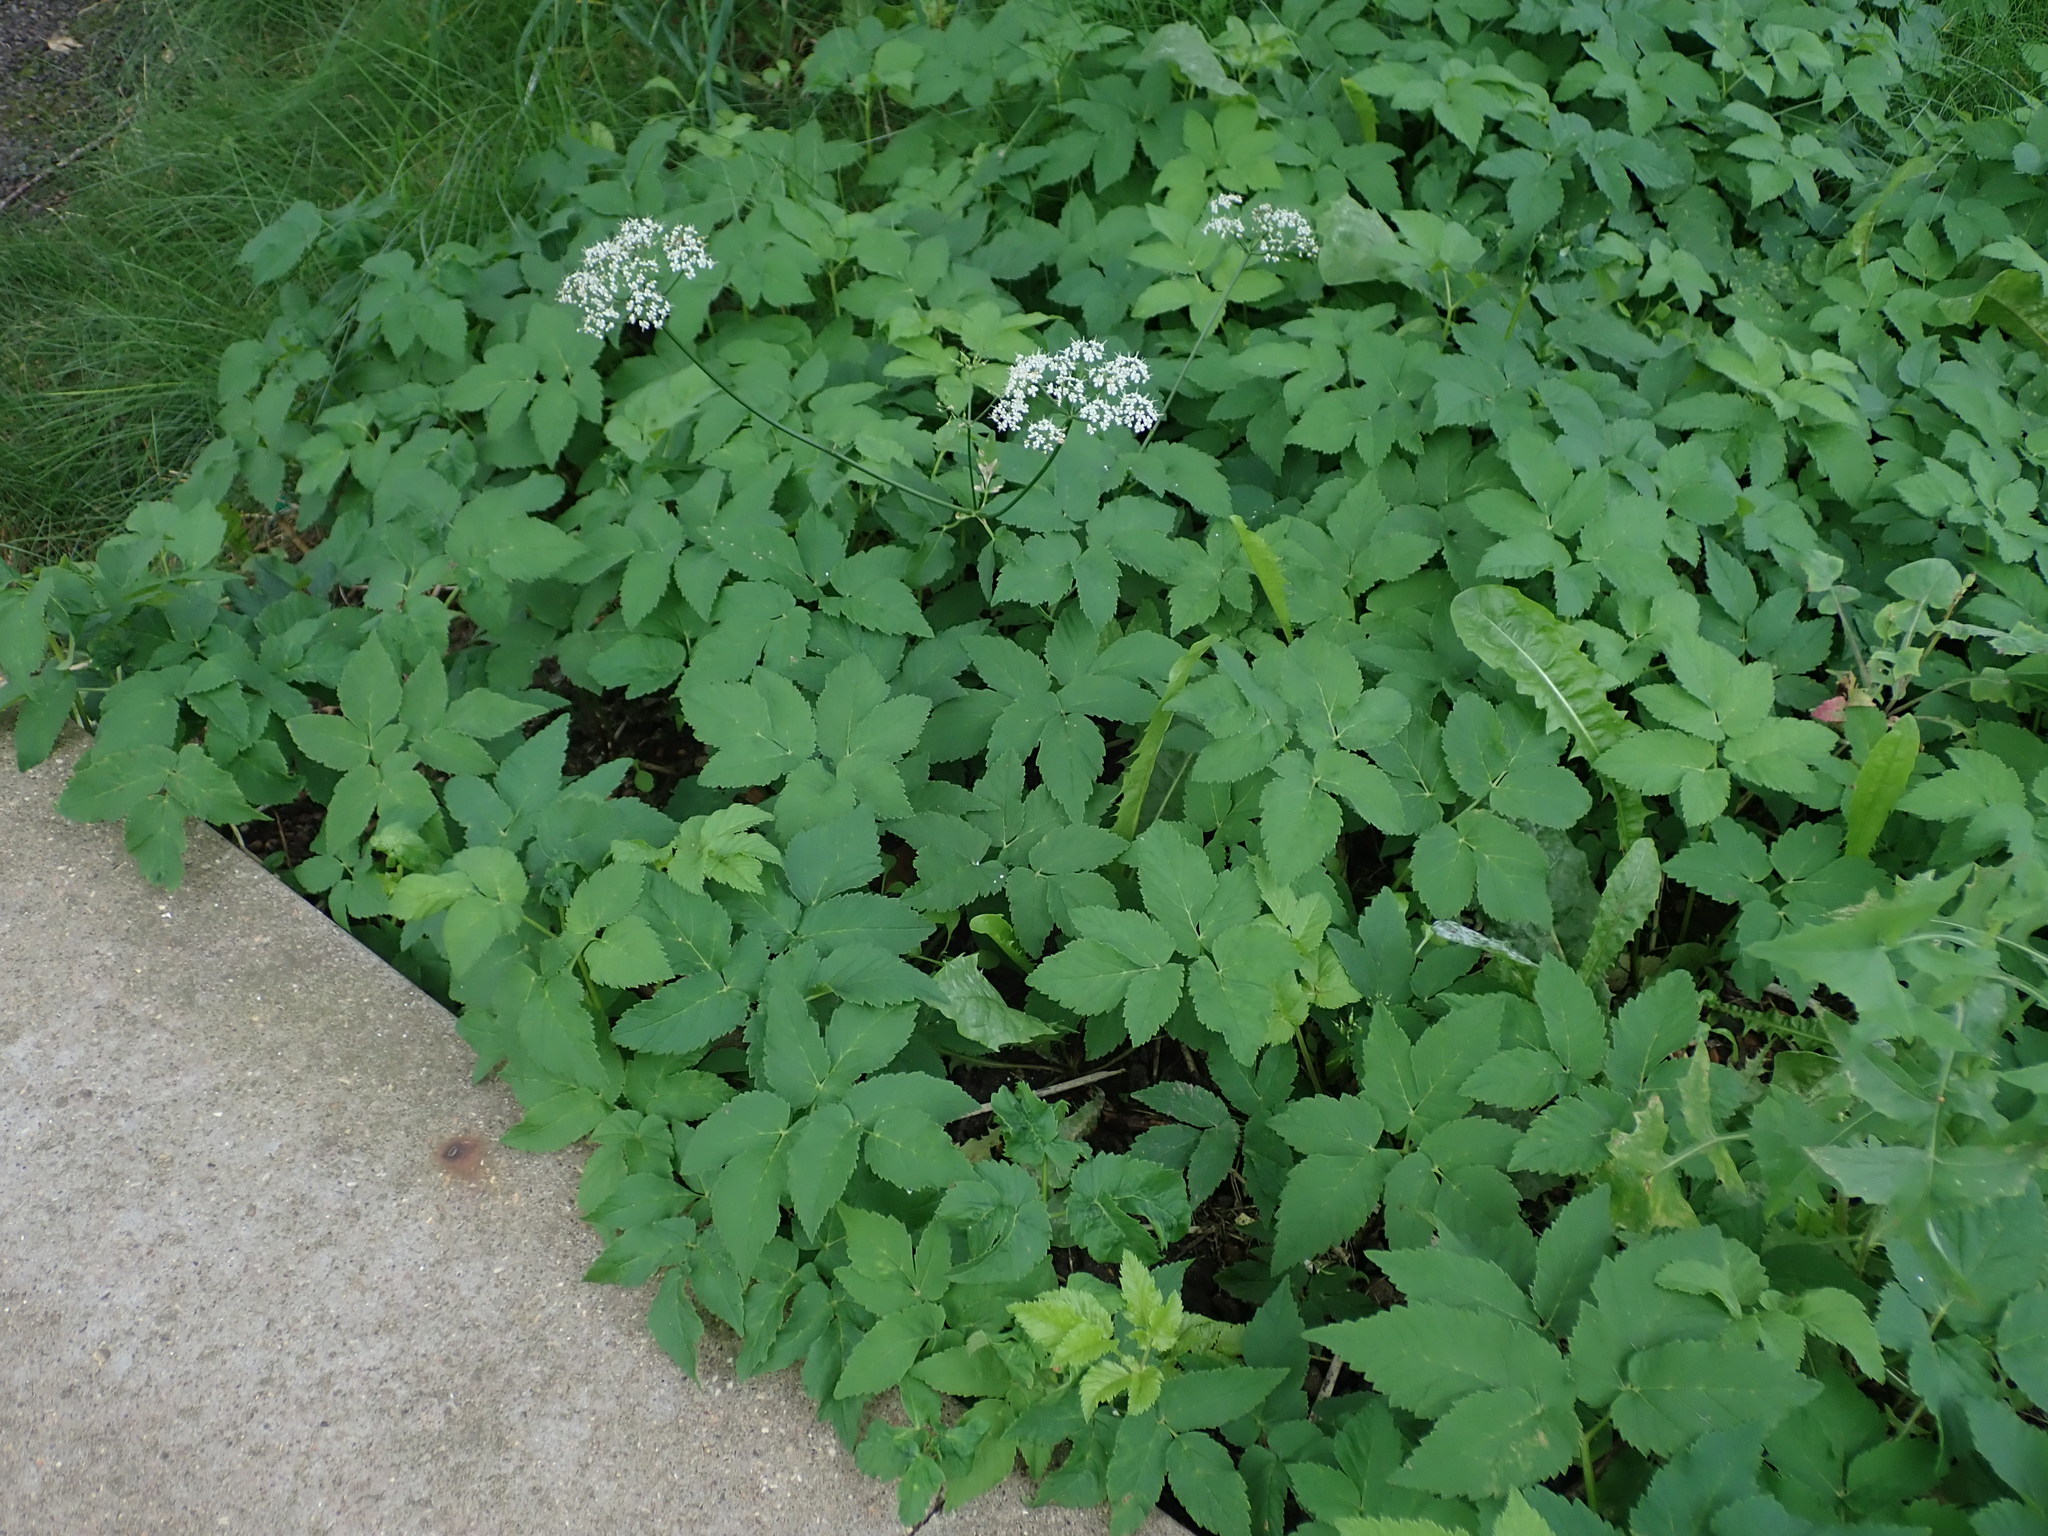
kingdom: Plantae
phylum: Tracheophyta
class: Magnoliopsida
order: Apiales
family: Apiaceae
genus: Aegopodium
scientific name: Aegopodium podagraria
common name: Ground-elder
